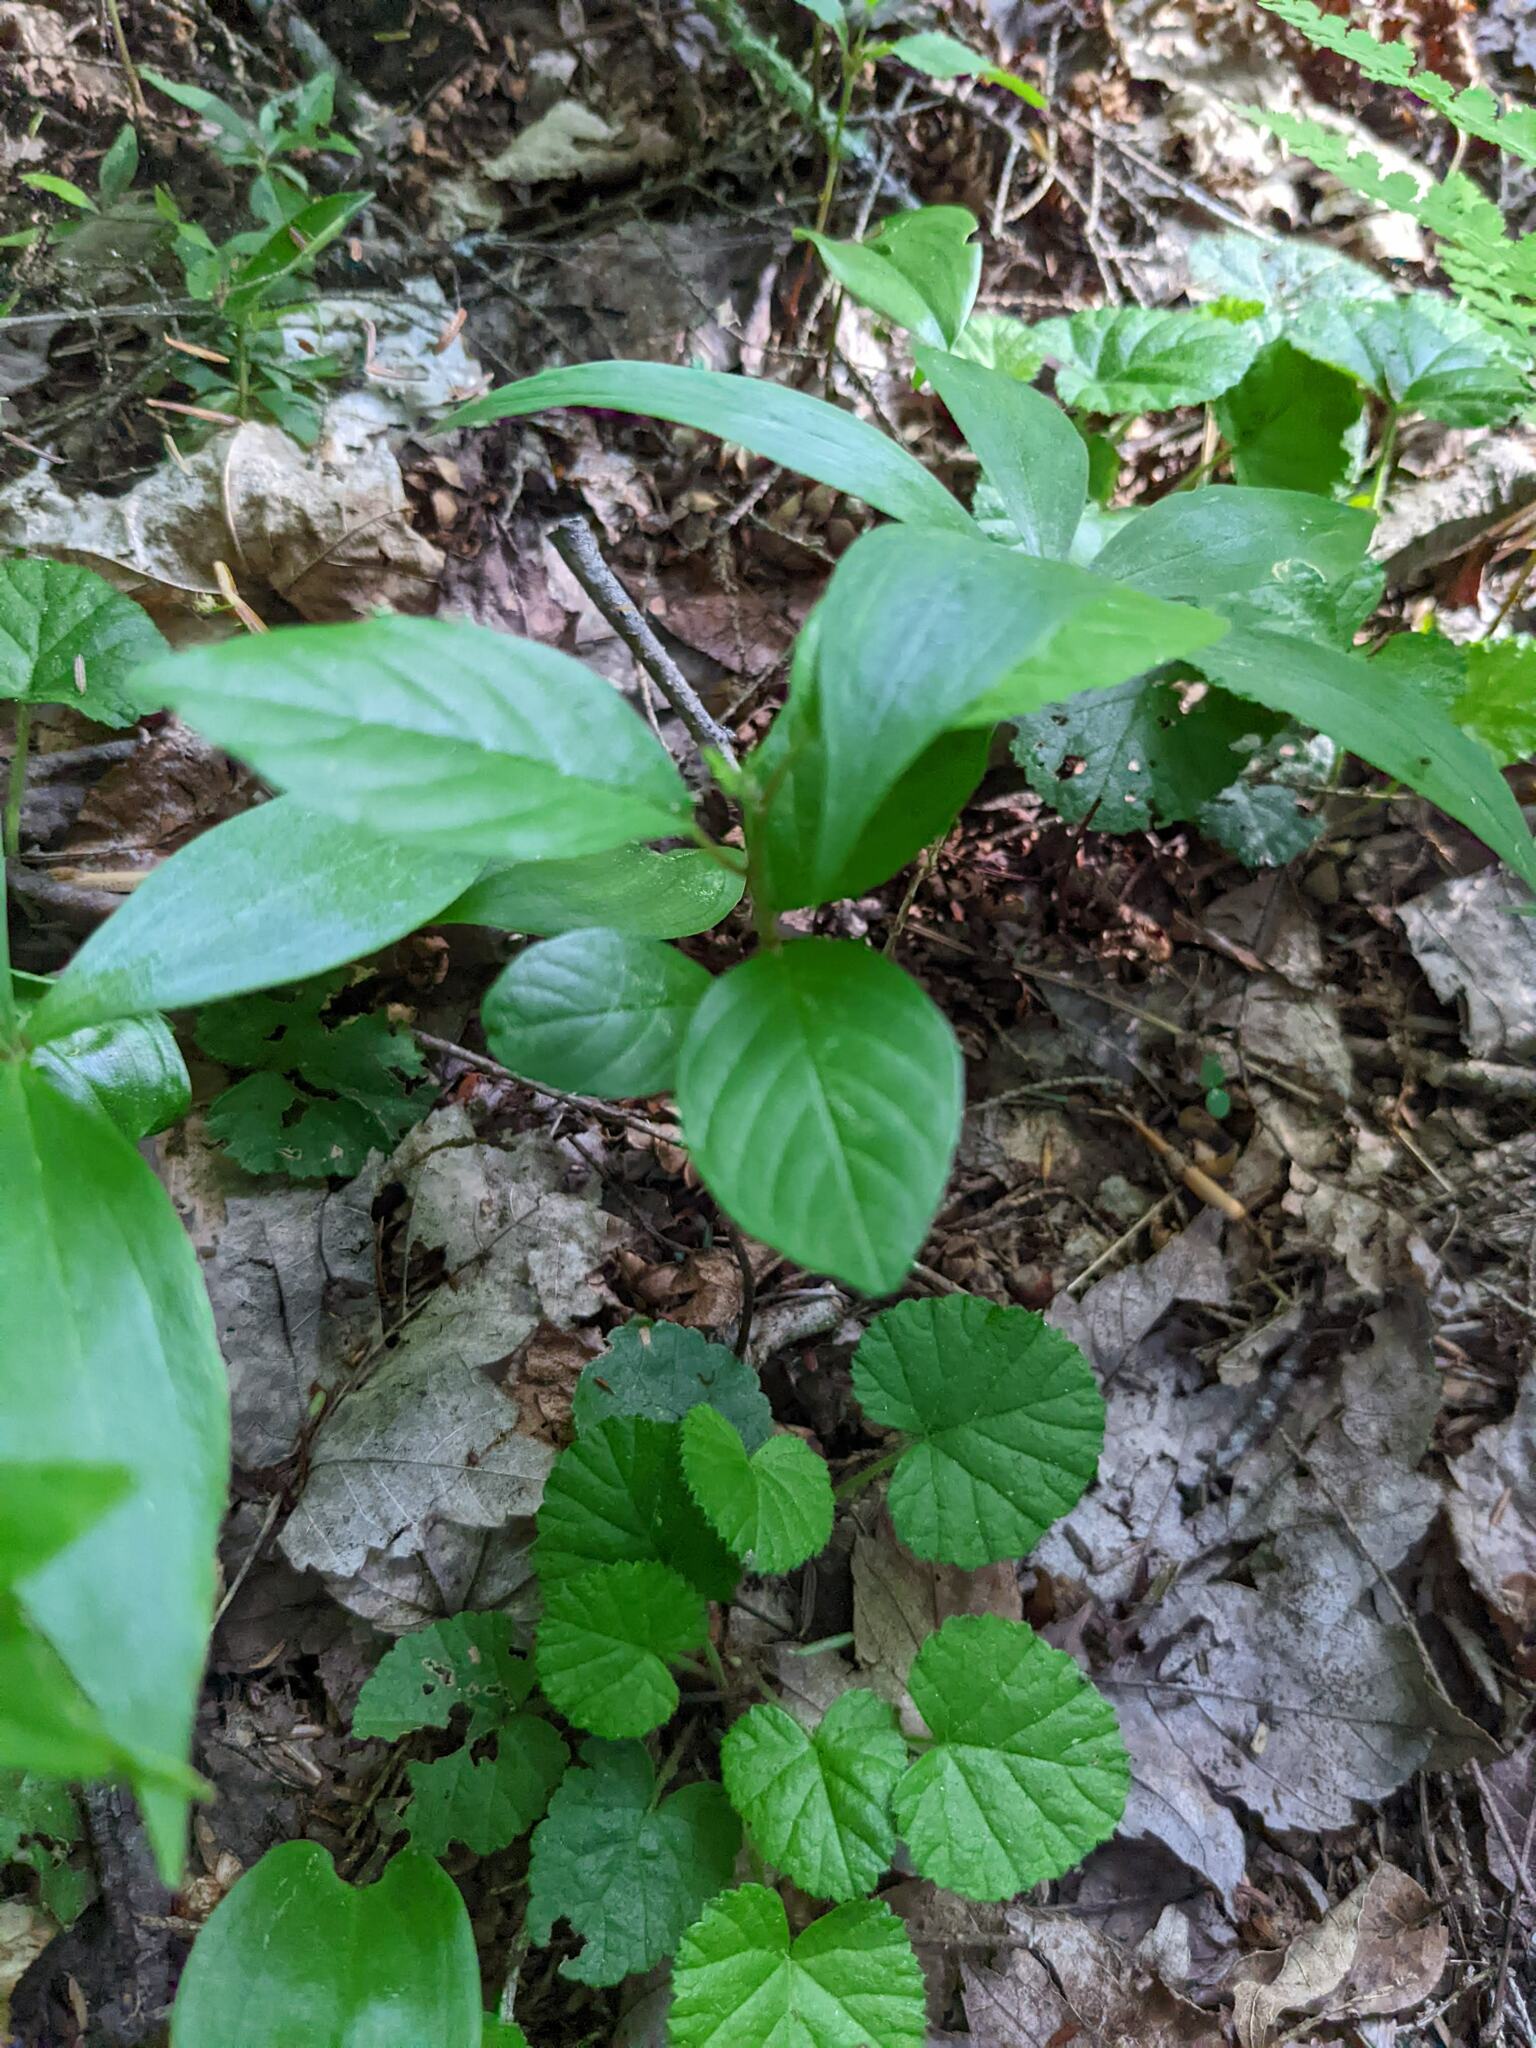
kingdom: Plantae
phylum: Tracheophyta
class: Magnoliopsida
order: Rosales
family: Rhamnaceae
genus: Frangula
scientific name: Frangula alnus
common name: Alder buckthorn
